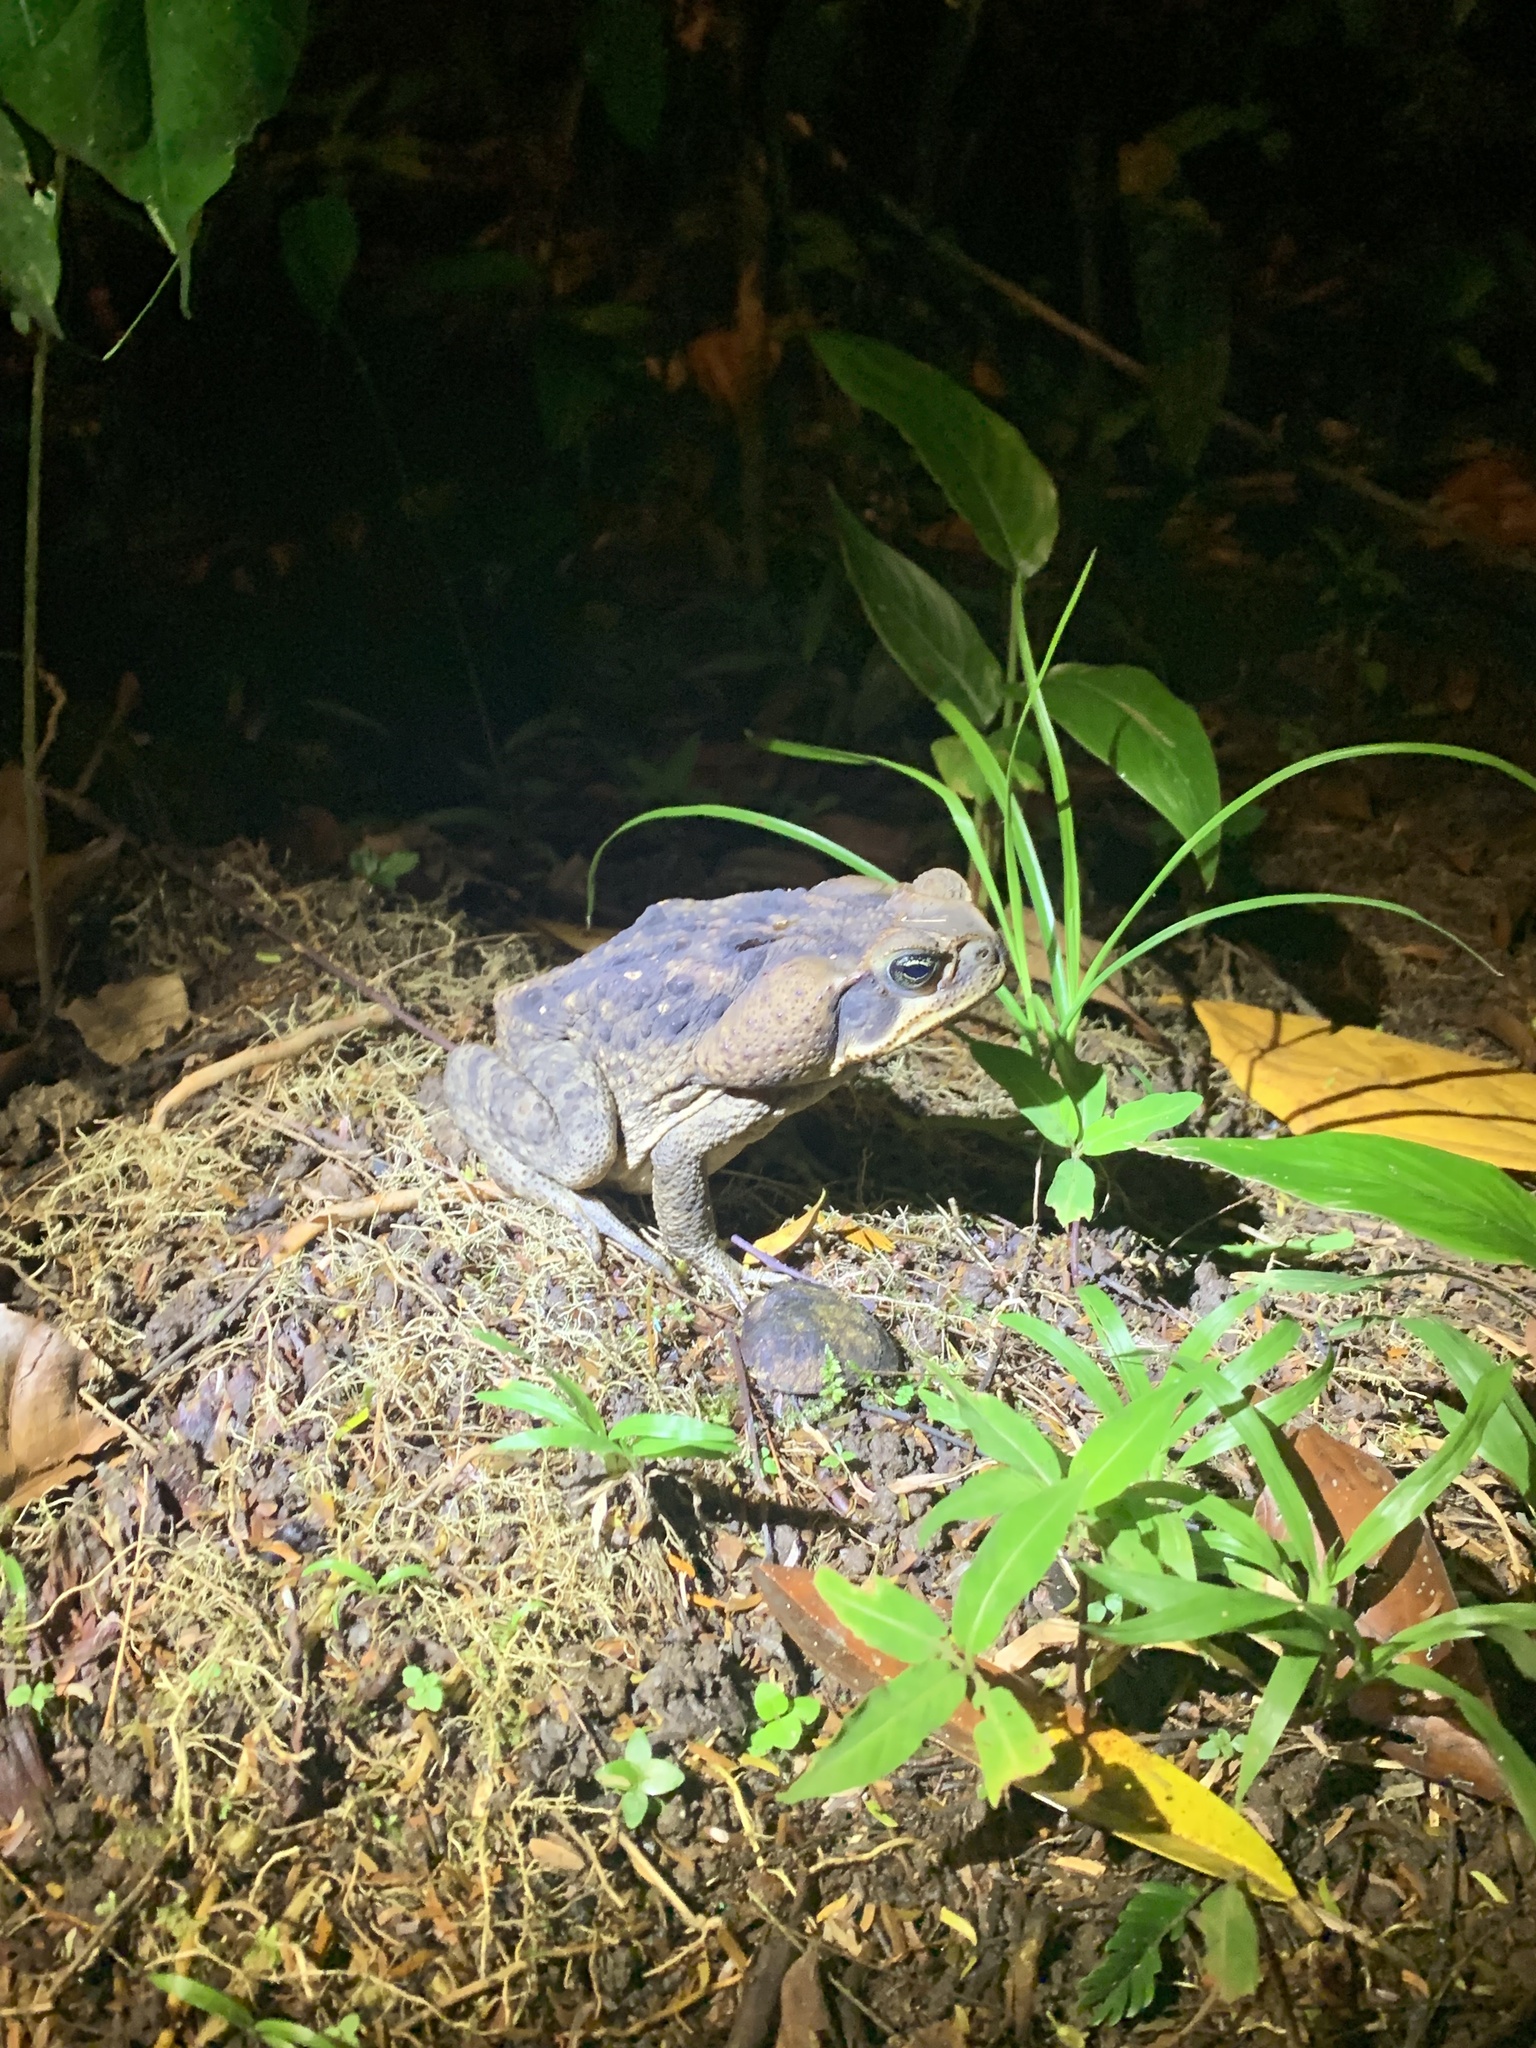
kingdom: Animalia
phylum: Chordata
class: Amphibia
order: Anura
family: Bufonidae
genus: Rhinella
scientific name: Rhinella horribilis
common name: Mesoamerican cane toad
